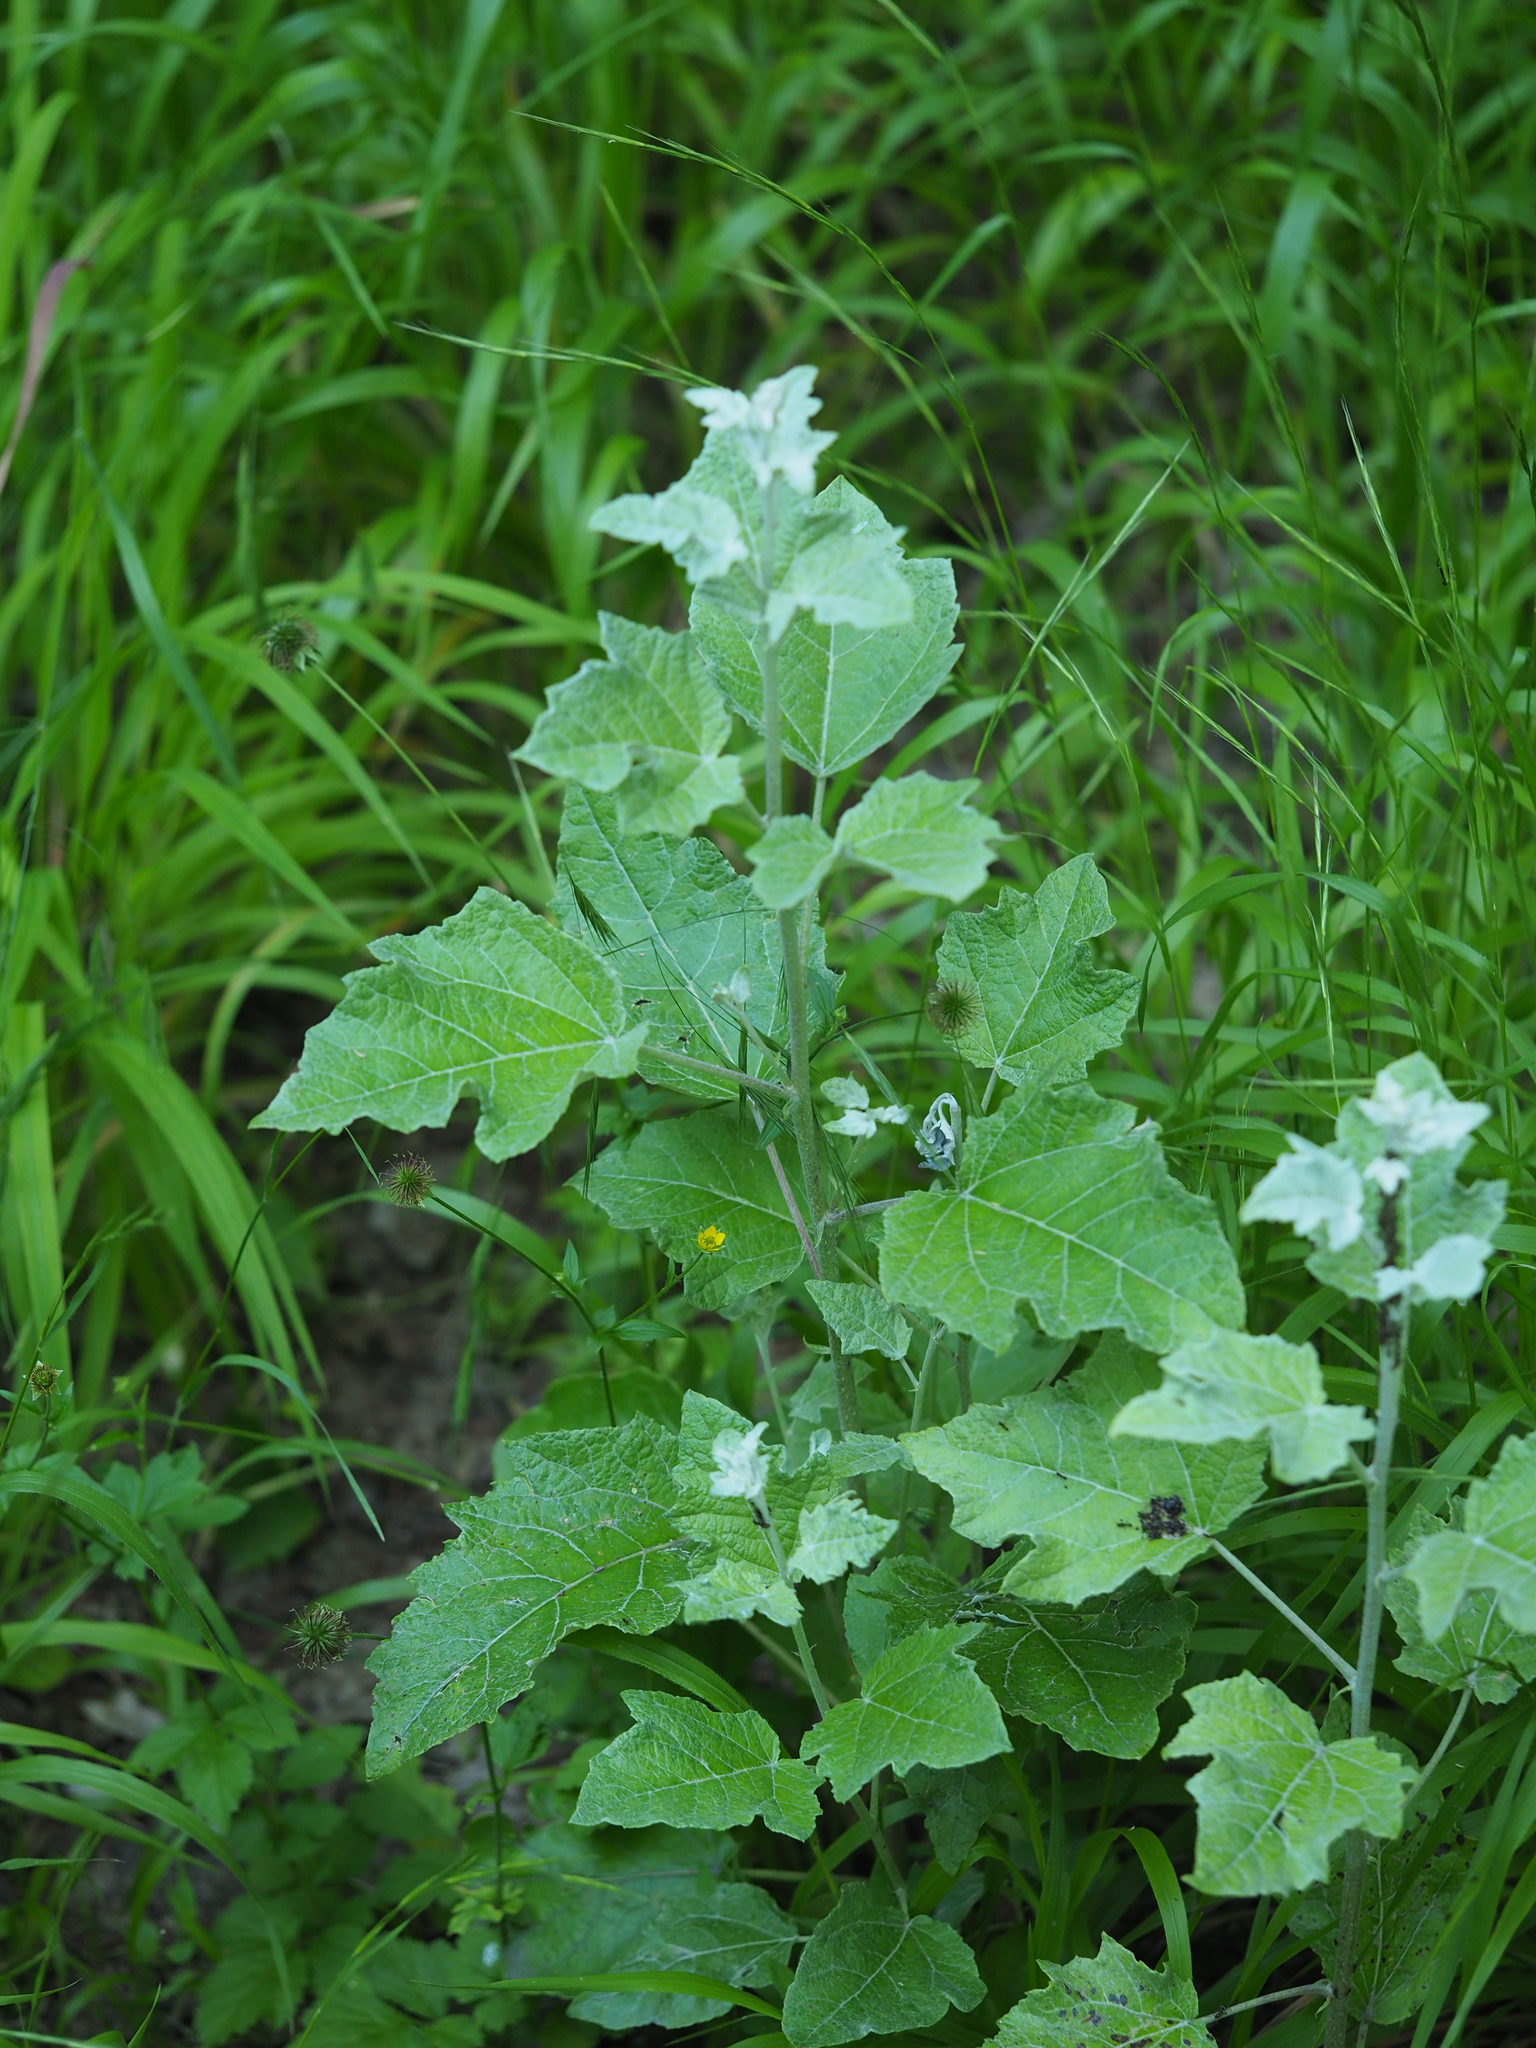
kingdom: Plantae
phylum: Tracheophyta
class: Magnoliopsida
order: Malpighiales
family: Salicaceae
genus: Populus
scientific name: Populus alba
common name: White poplar
